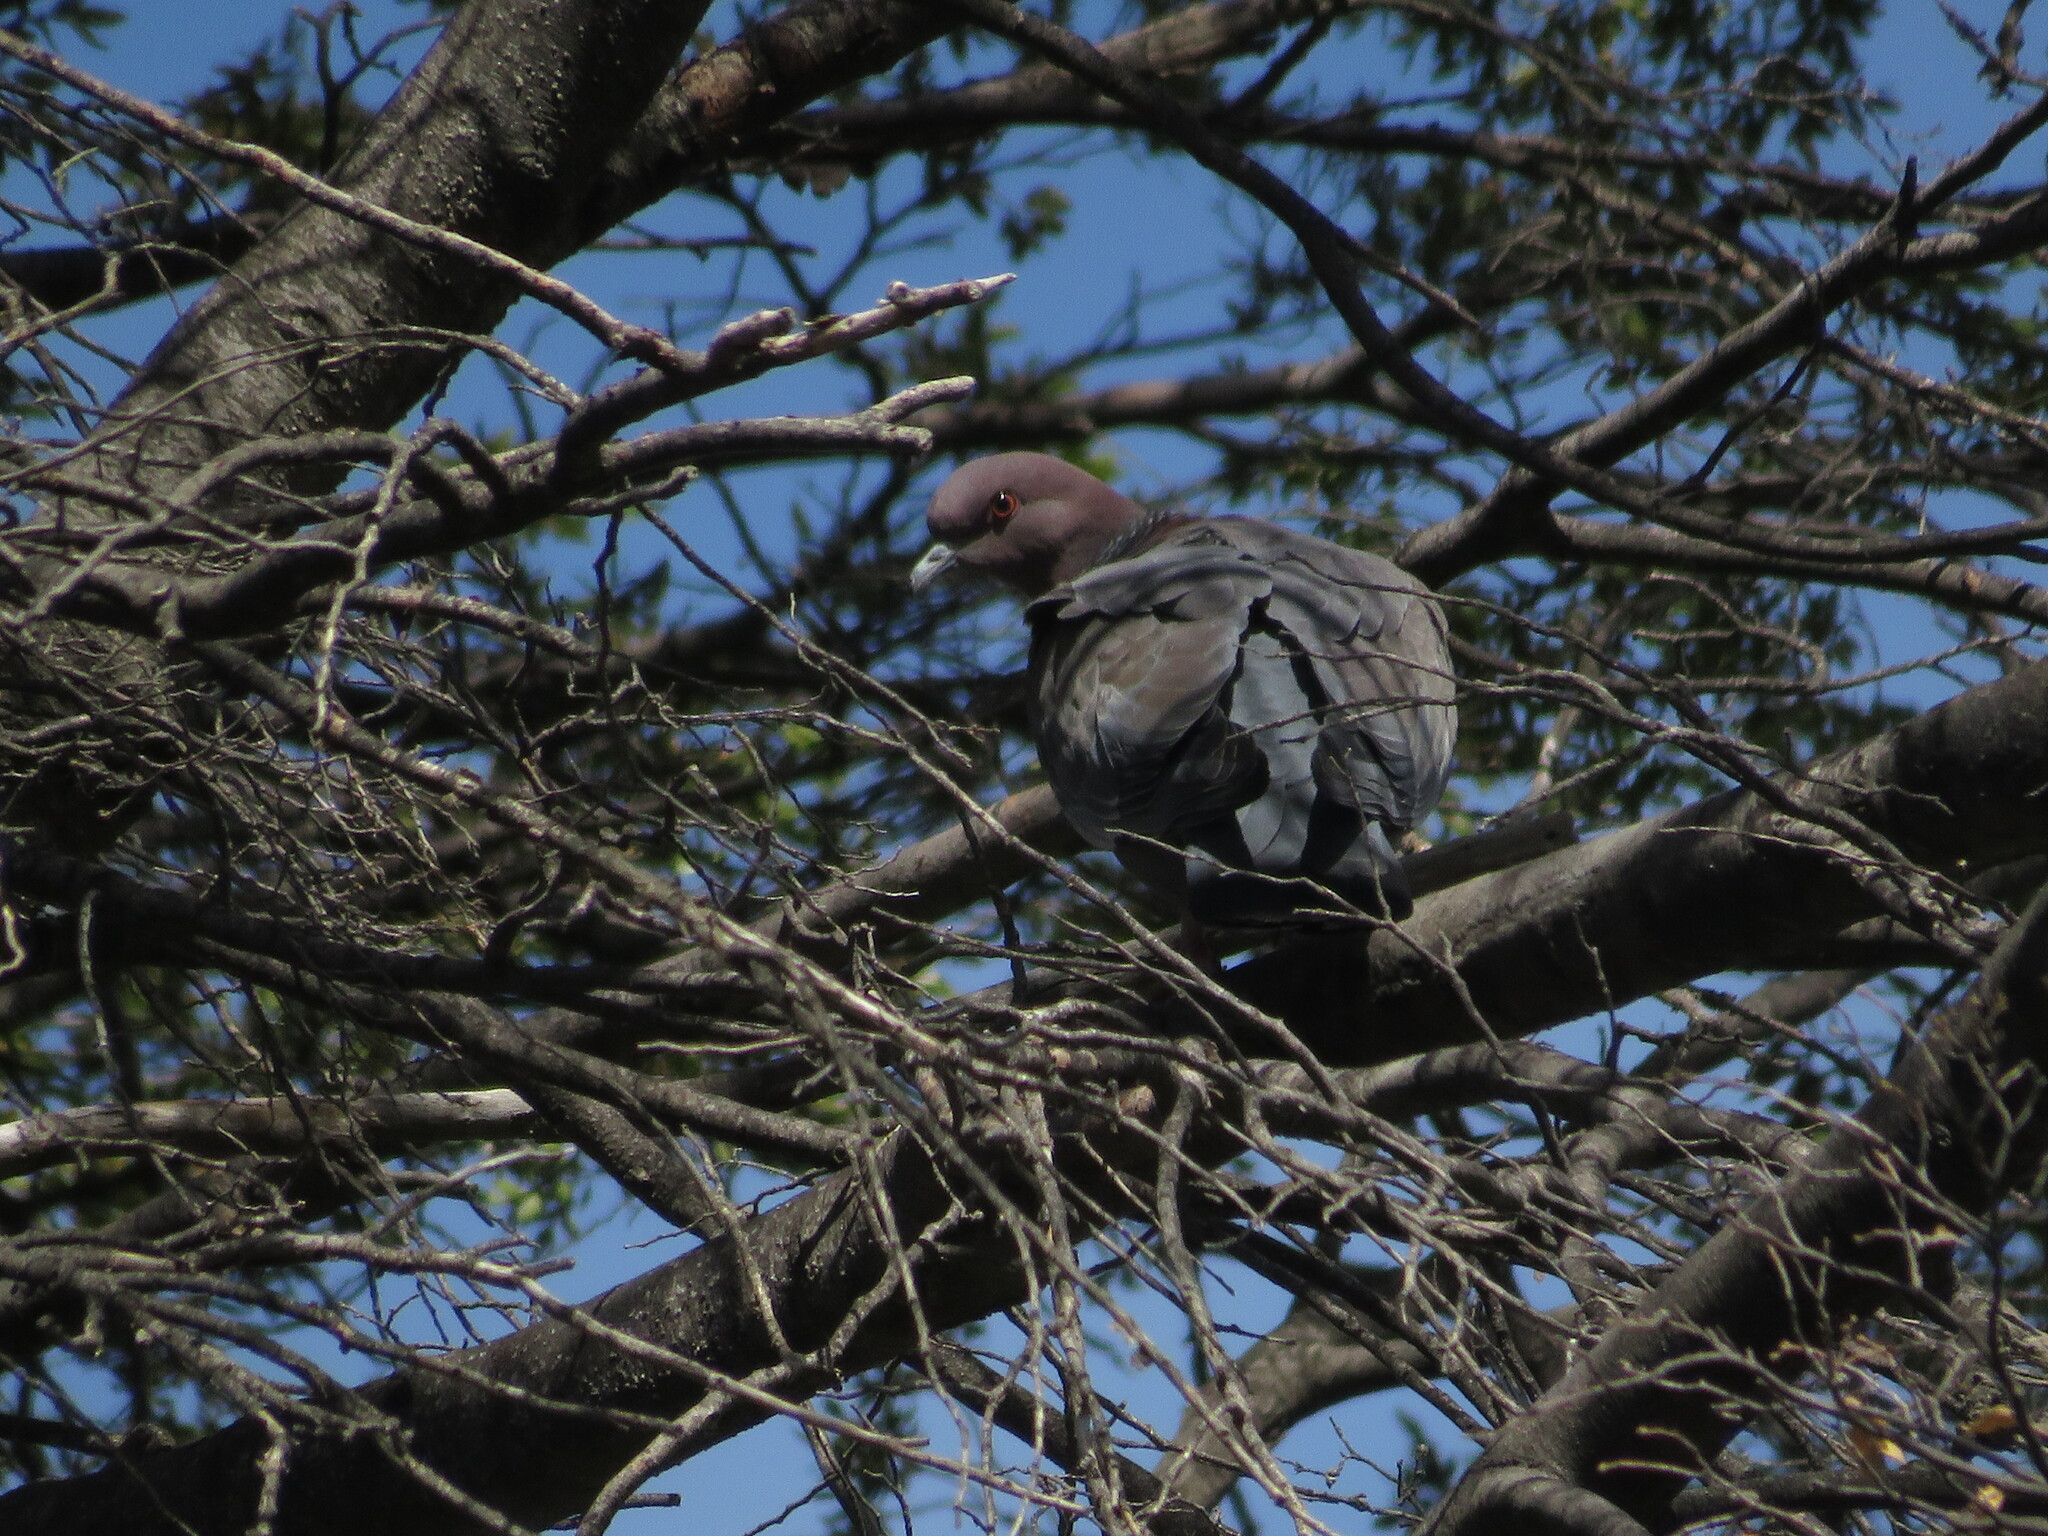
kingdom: Animalia
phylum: Chordata
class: Aves
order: Columbiformes
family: Columbidae
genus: Patagioenas
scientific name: Patagioenas picazuro
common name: Picazuro pigeon
